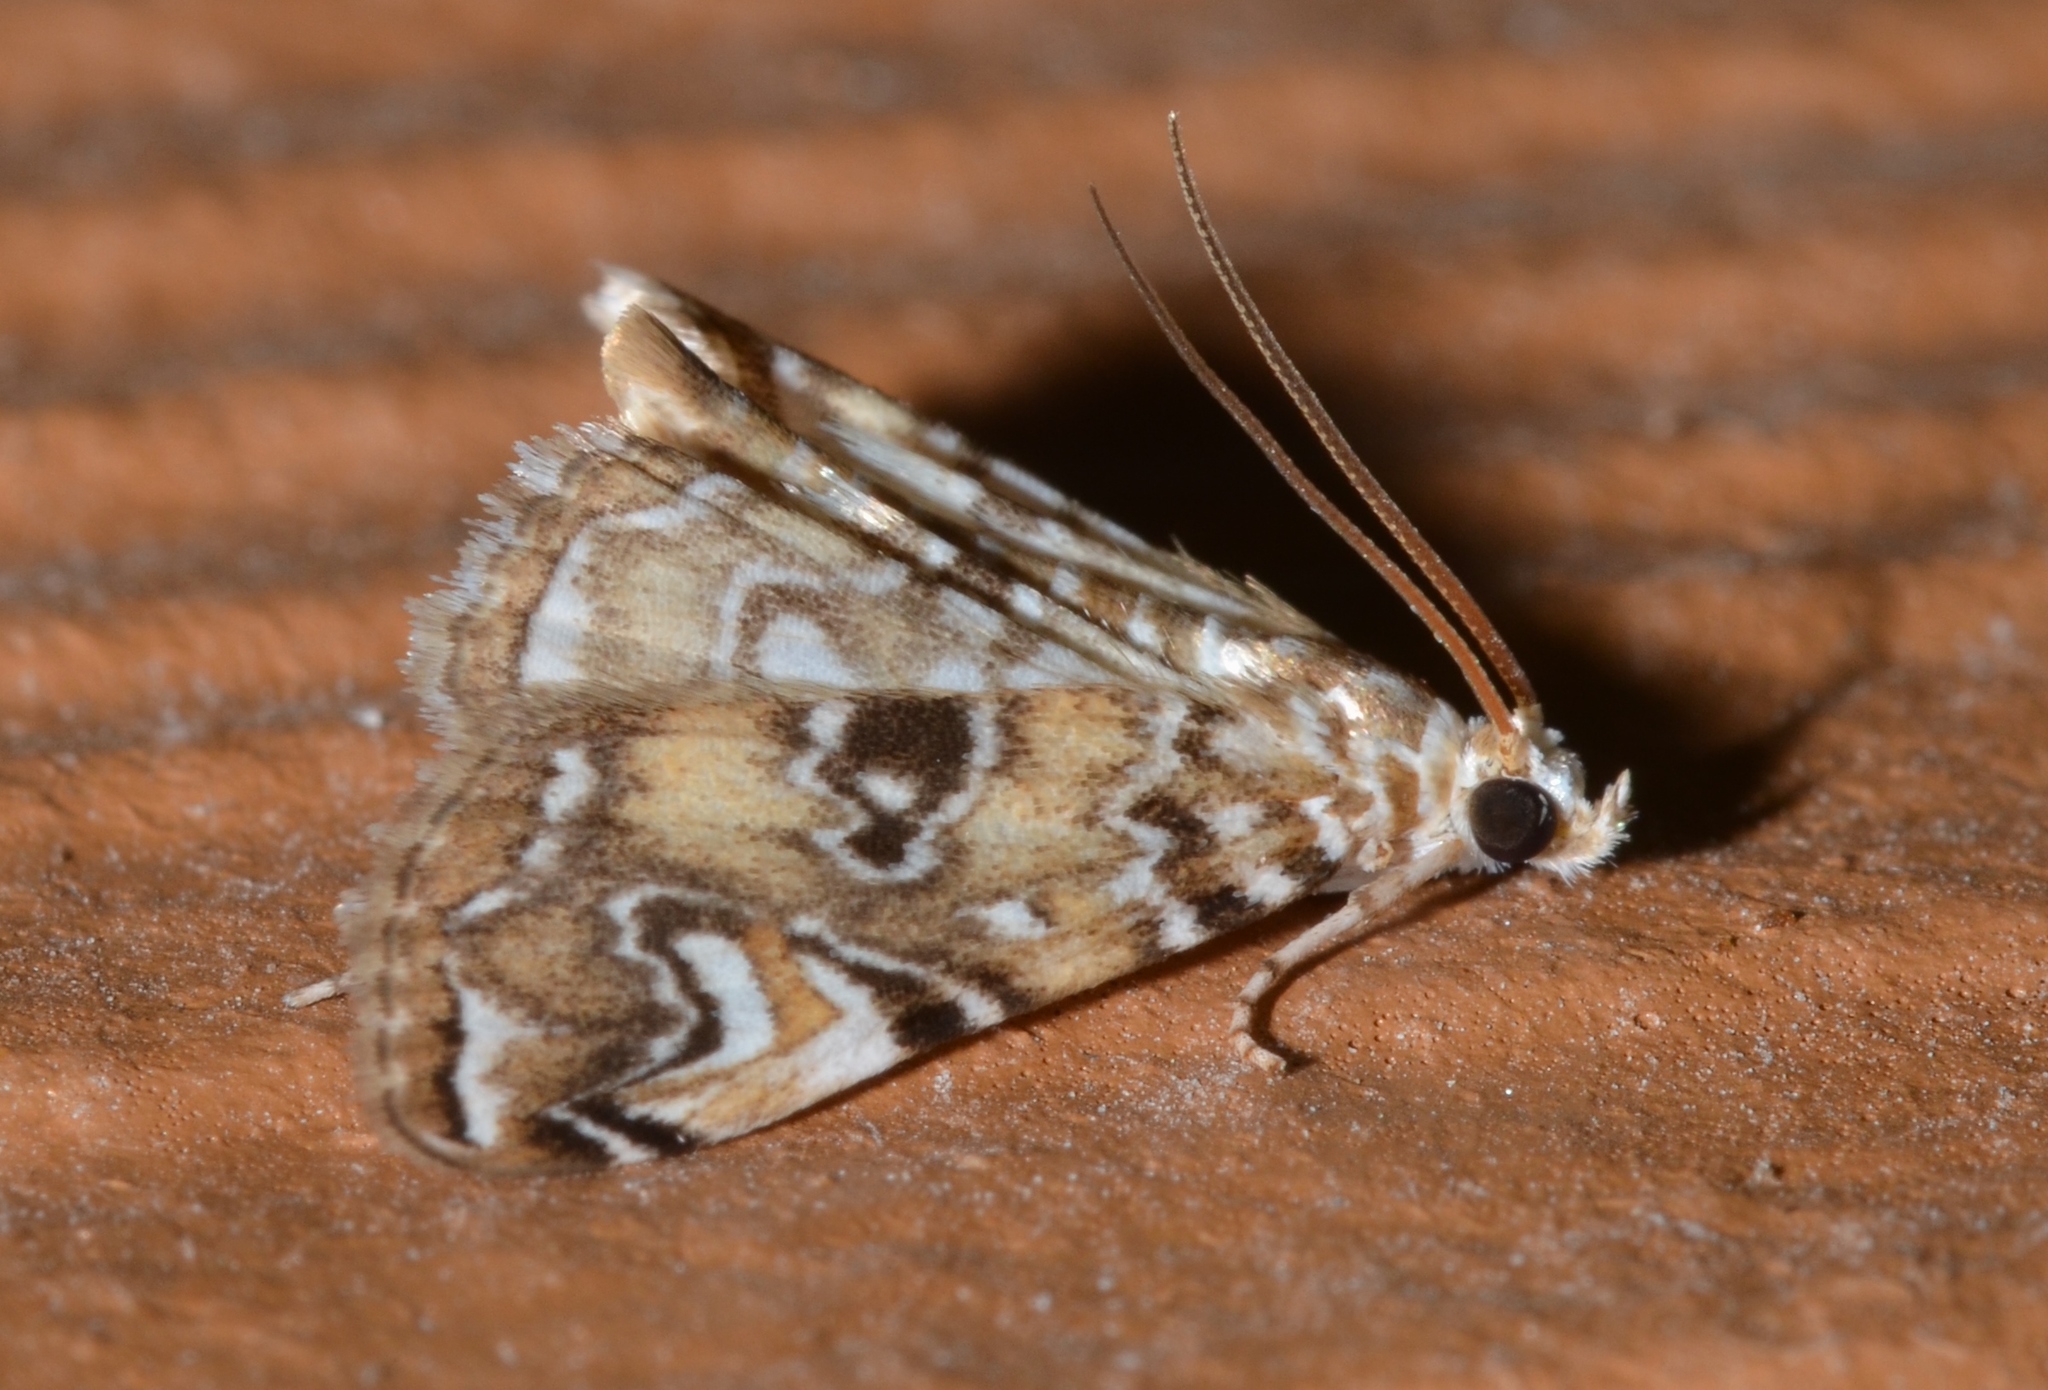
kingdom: Animalia
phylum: Arthropoda
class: Insecta
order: Lepidoptera
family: Crambidae
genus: Elophila
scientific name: Elophila gyralis
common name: Waterlily borer moth
